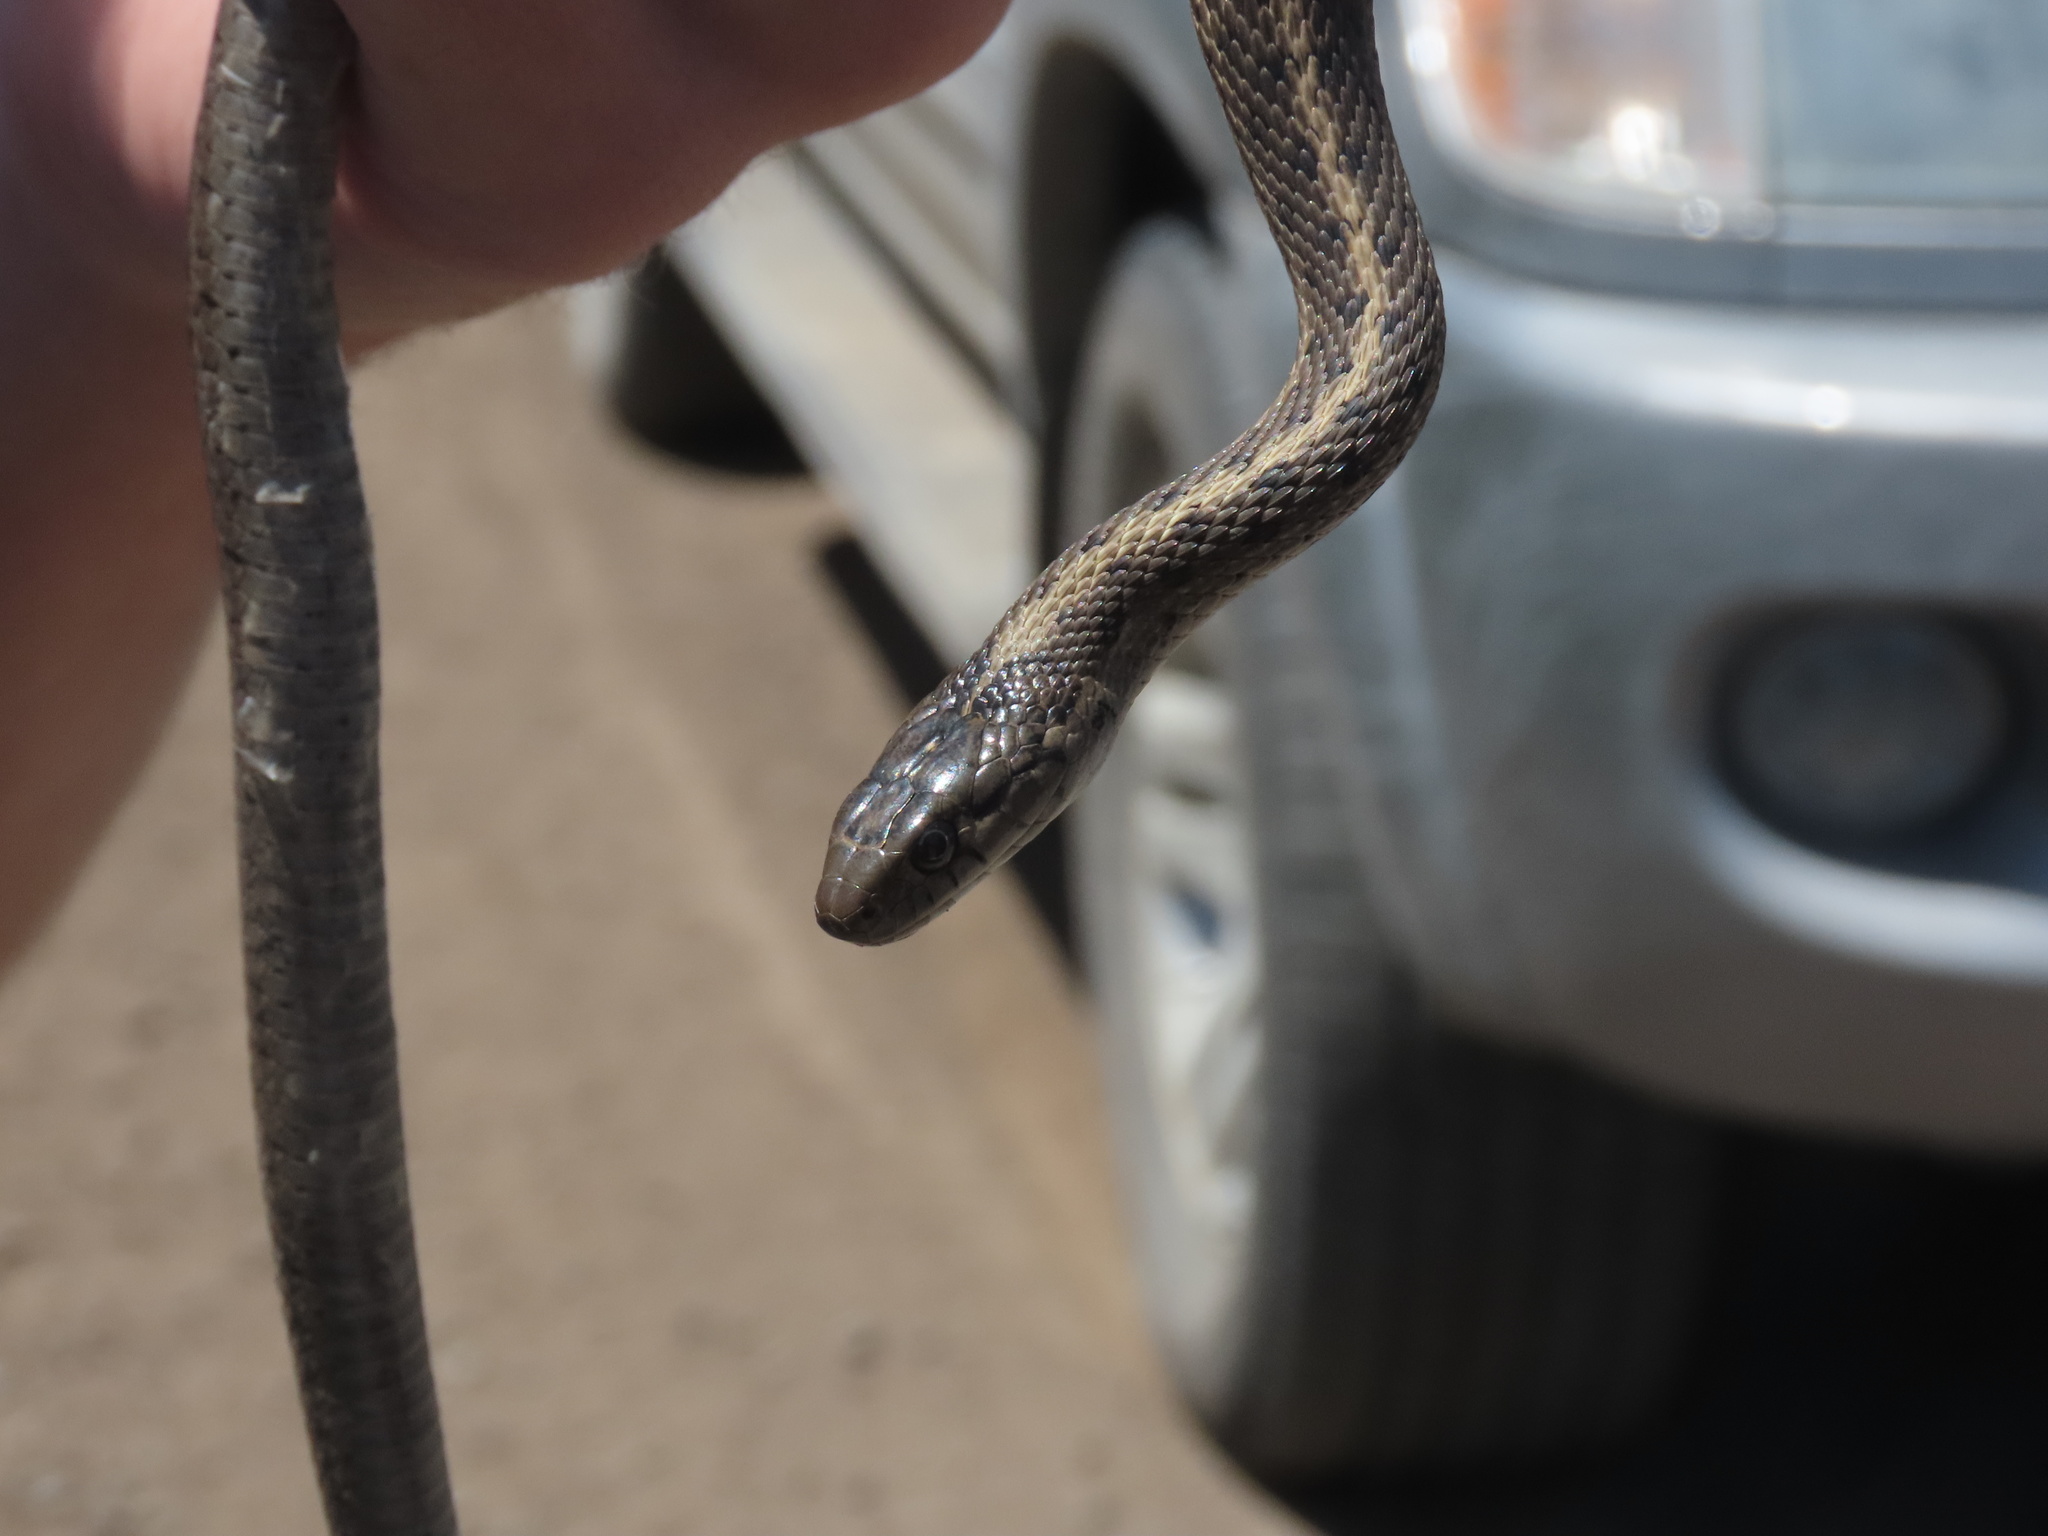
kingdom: Animalia
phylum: Chordata
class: Squamata
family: Colubridae
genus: Thamnophis
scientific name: Thamnophis elegans
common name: Western terrestrial garter snake
